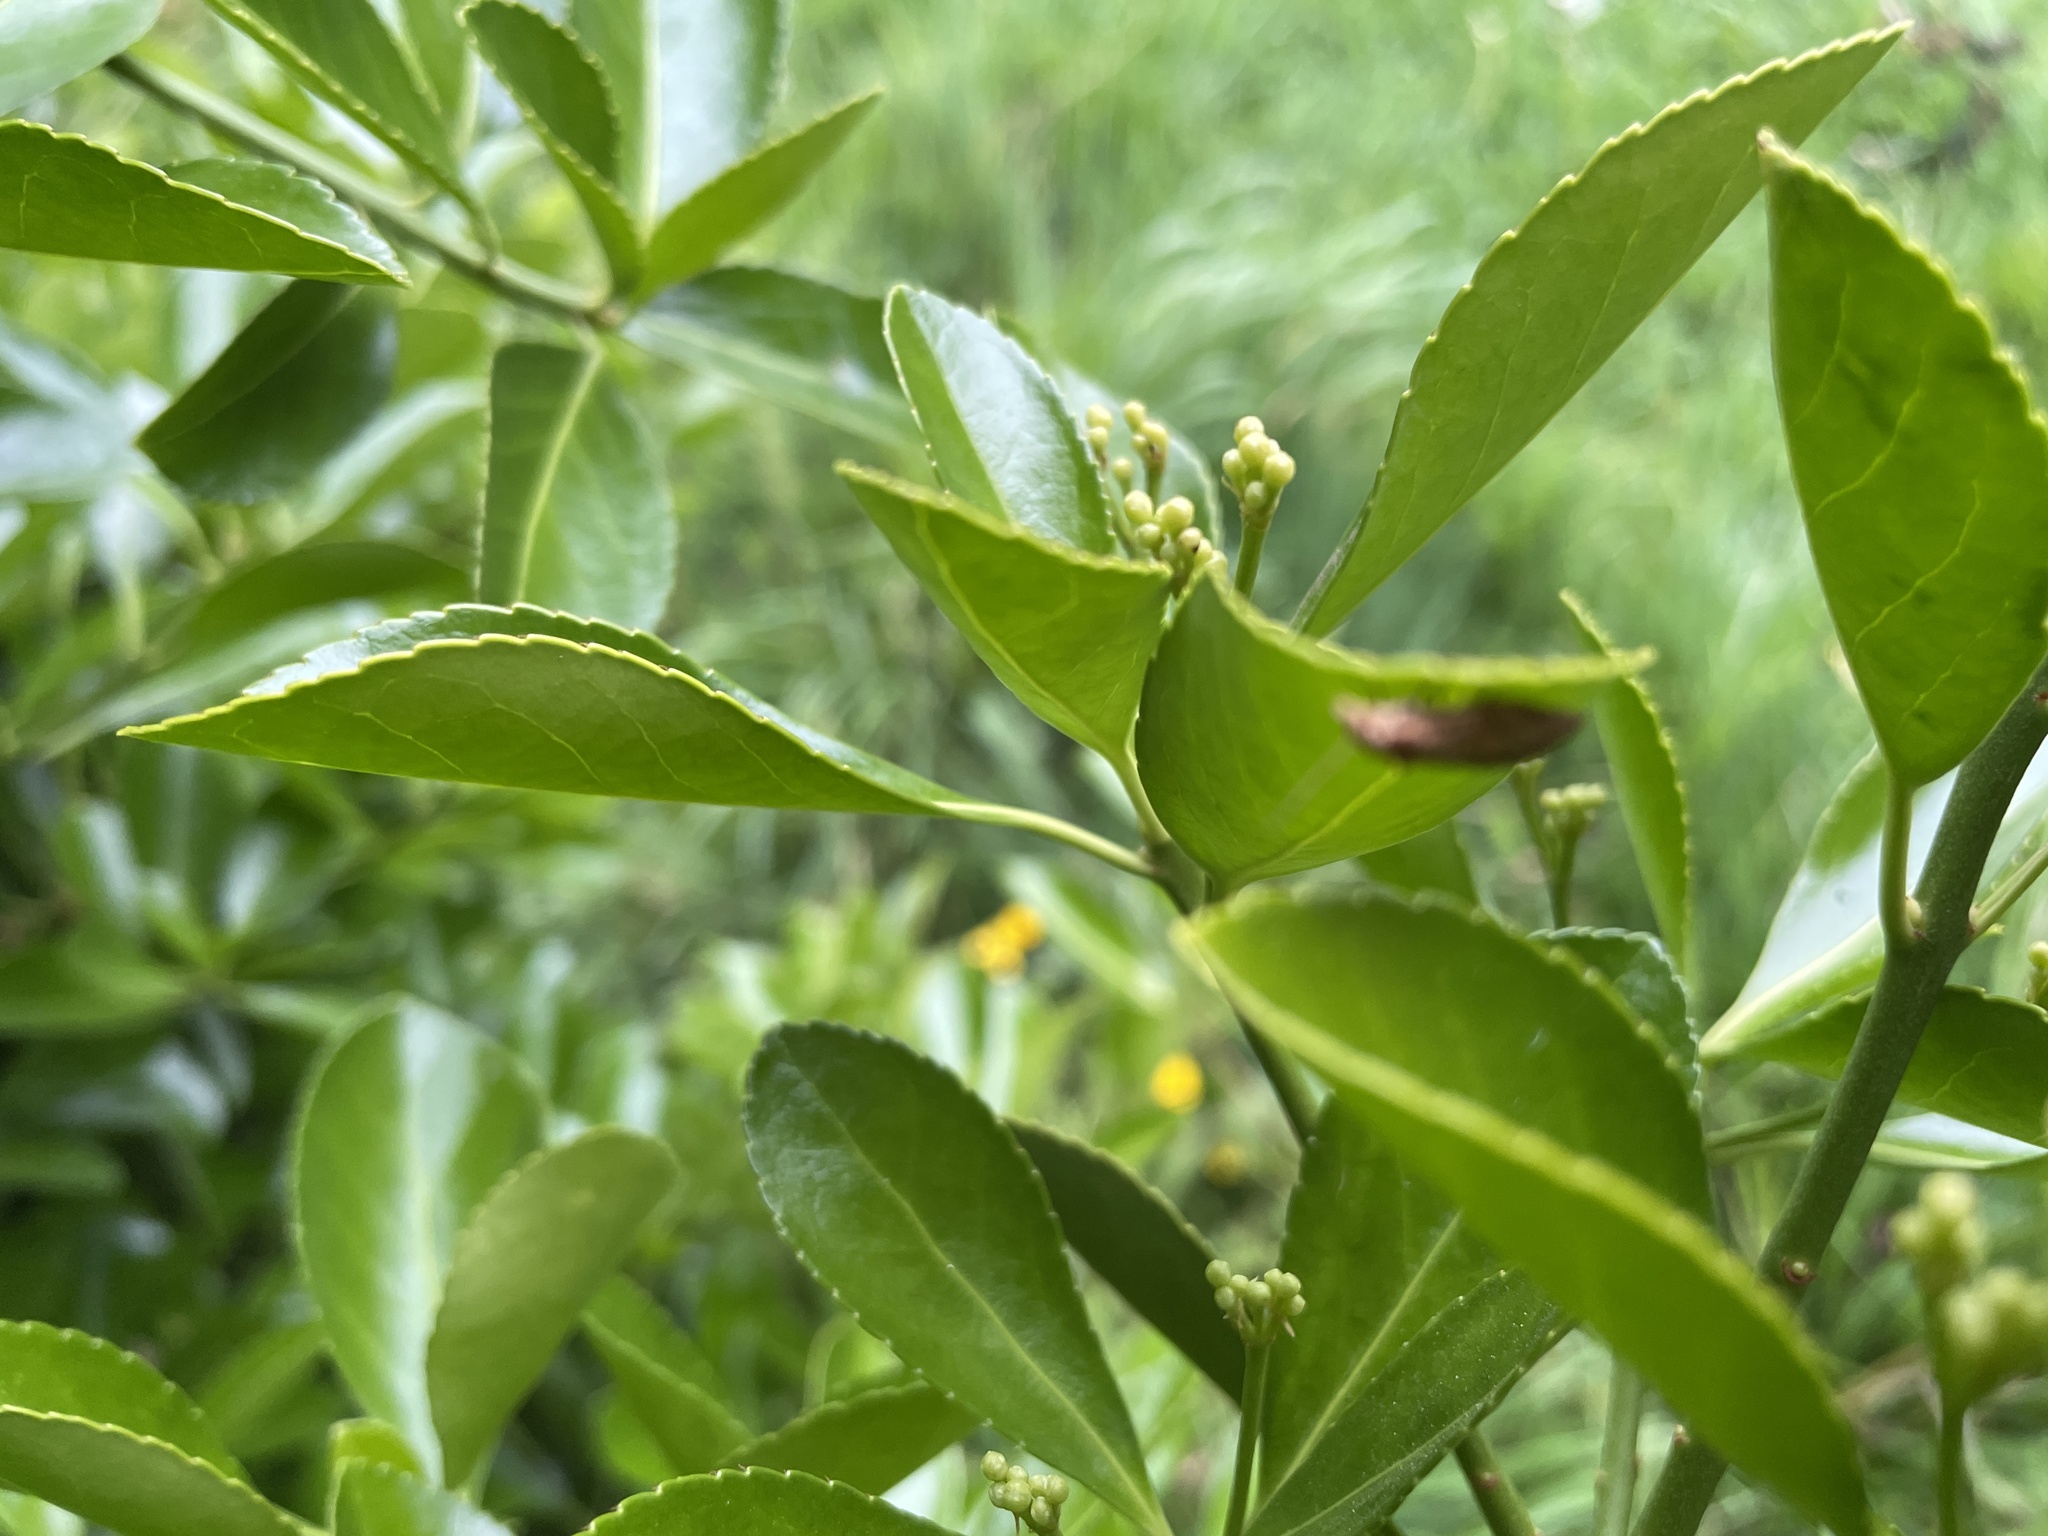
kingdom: Animalia
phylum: Arthropoda
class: Insecta
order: Lepidoptera
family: Tortricidae
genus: Epiphyas
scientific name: Epiphyas postvittana
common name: Light brown apple moth
